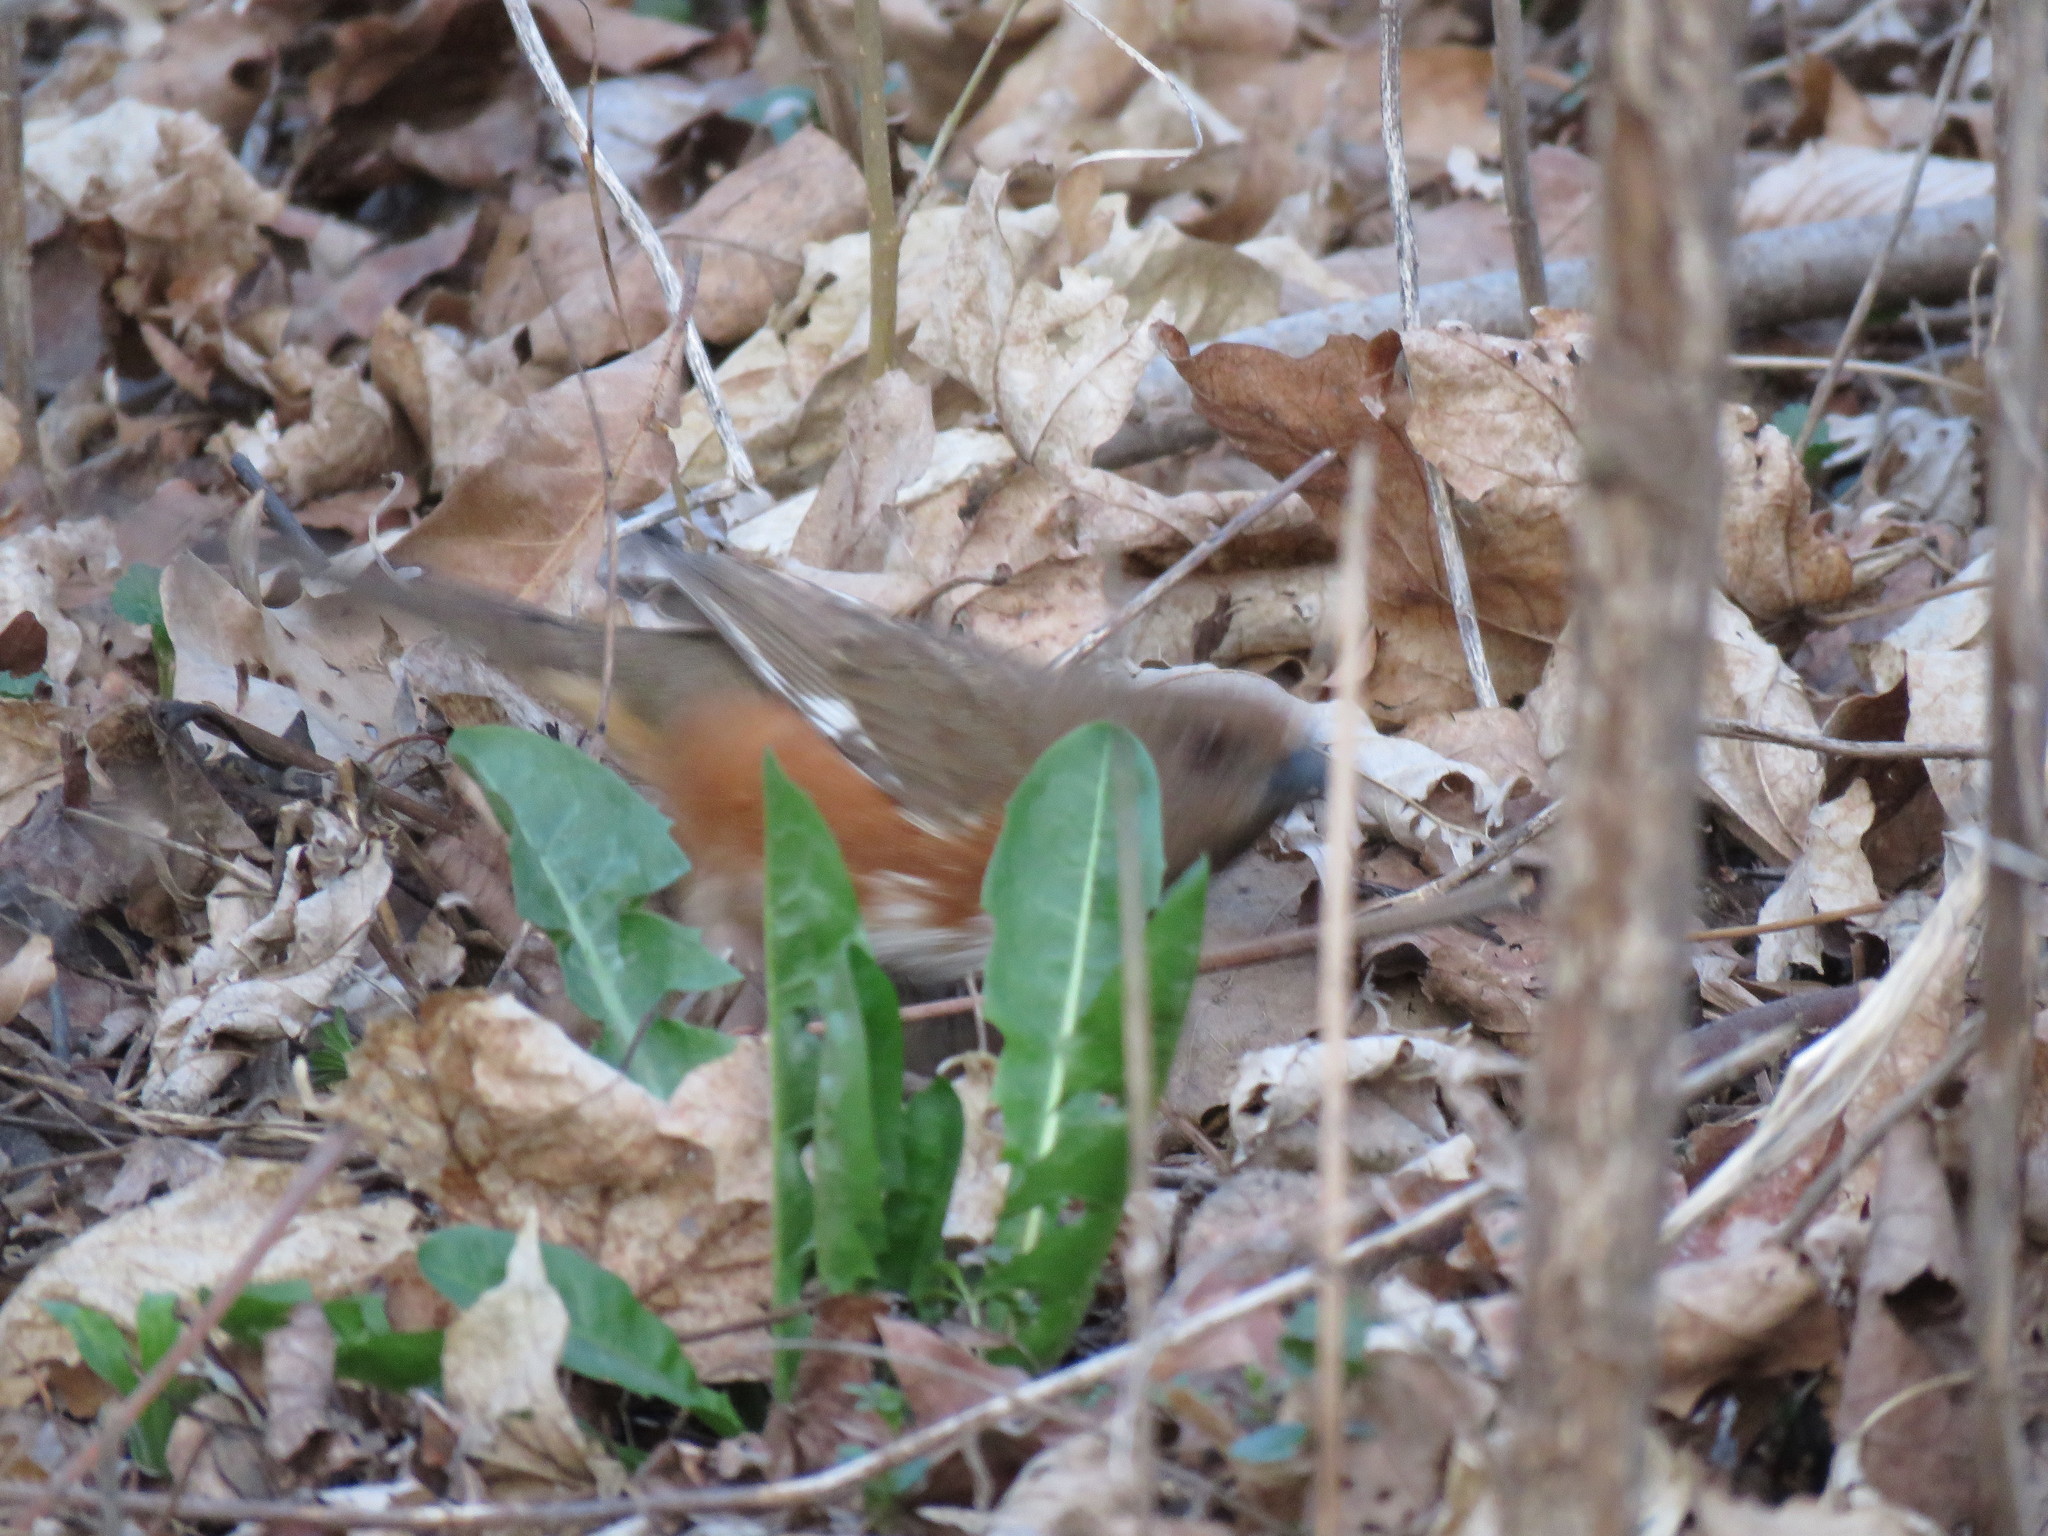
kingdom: Animalia
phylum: Chordata
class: Aves
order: Passeriformes
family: Passerellidae
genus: Pipilo
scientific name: Pipilo erythrophthalmus
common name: Eastern towhee
